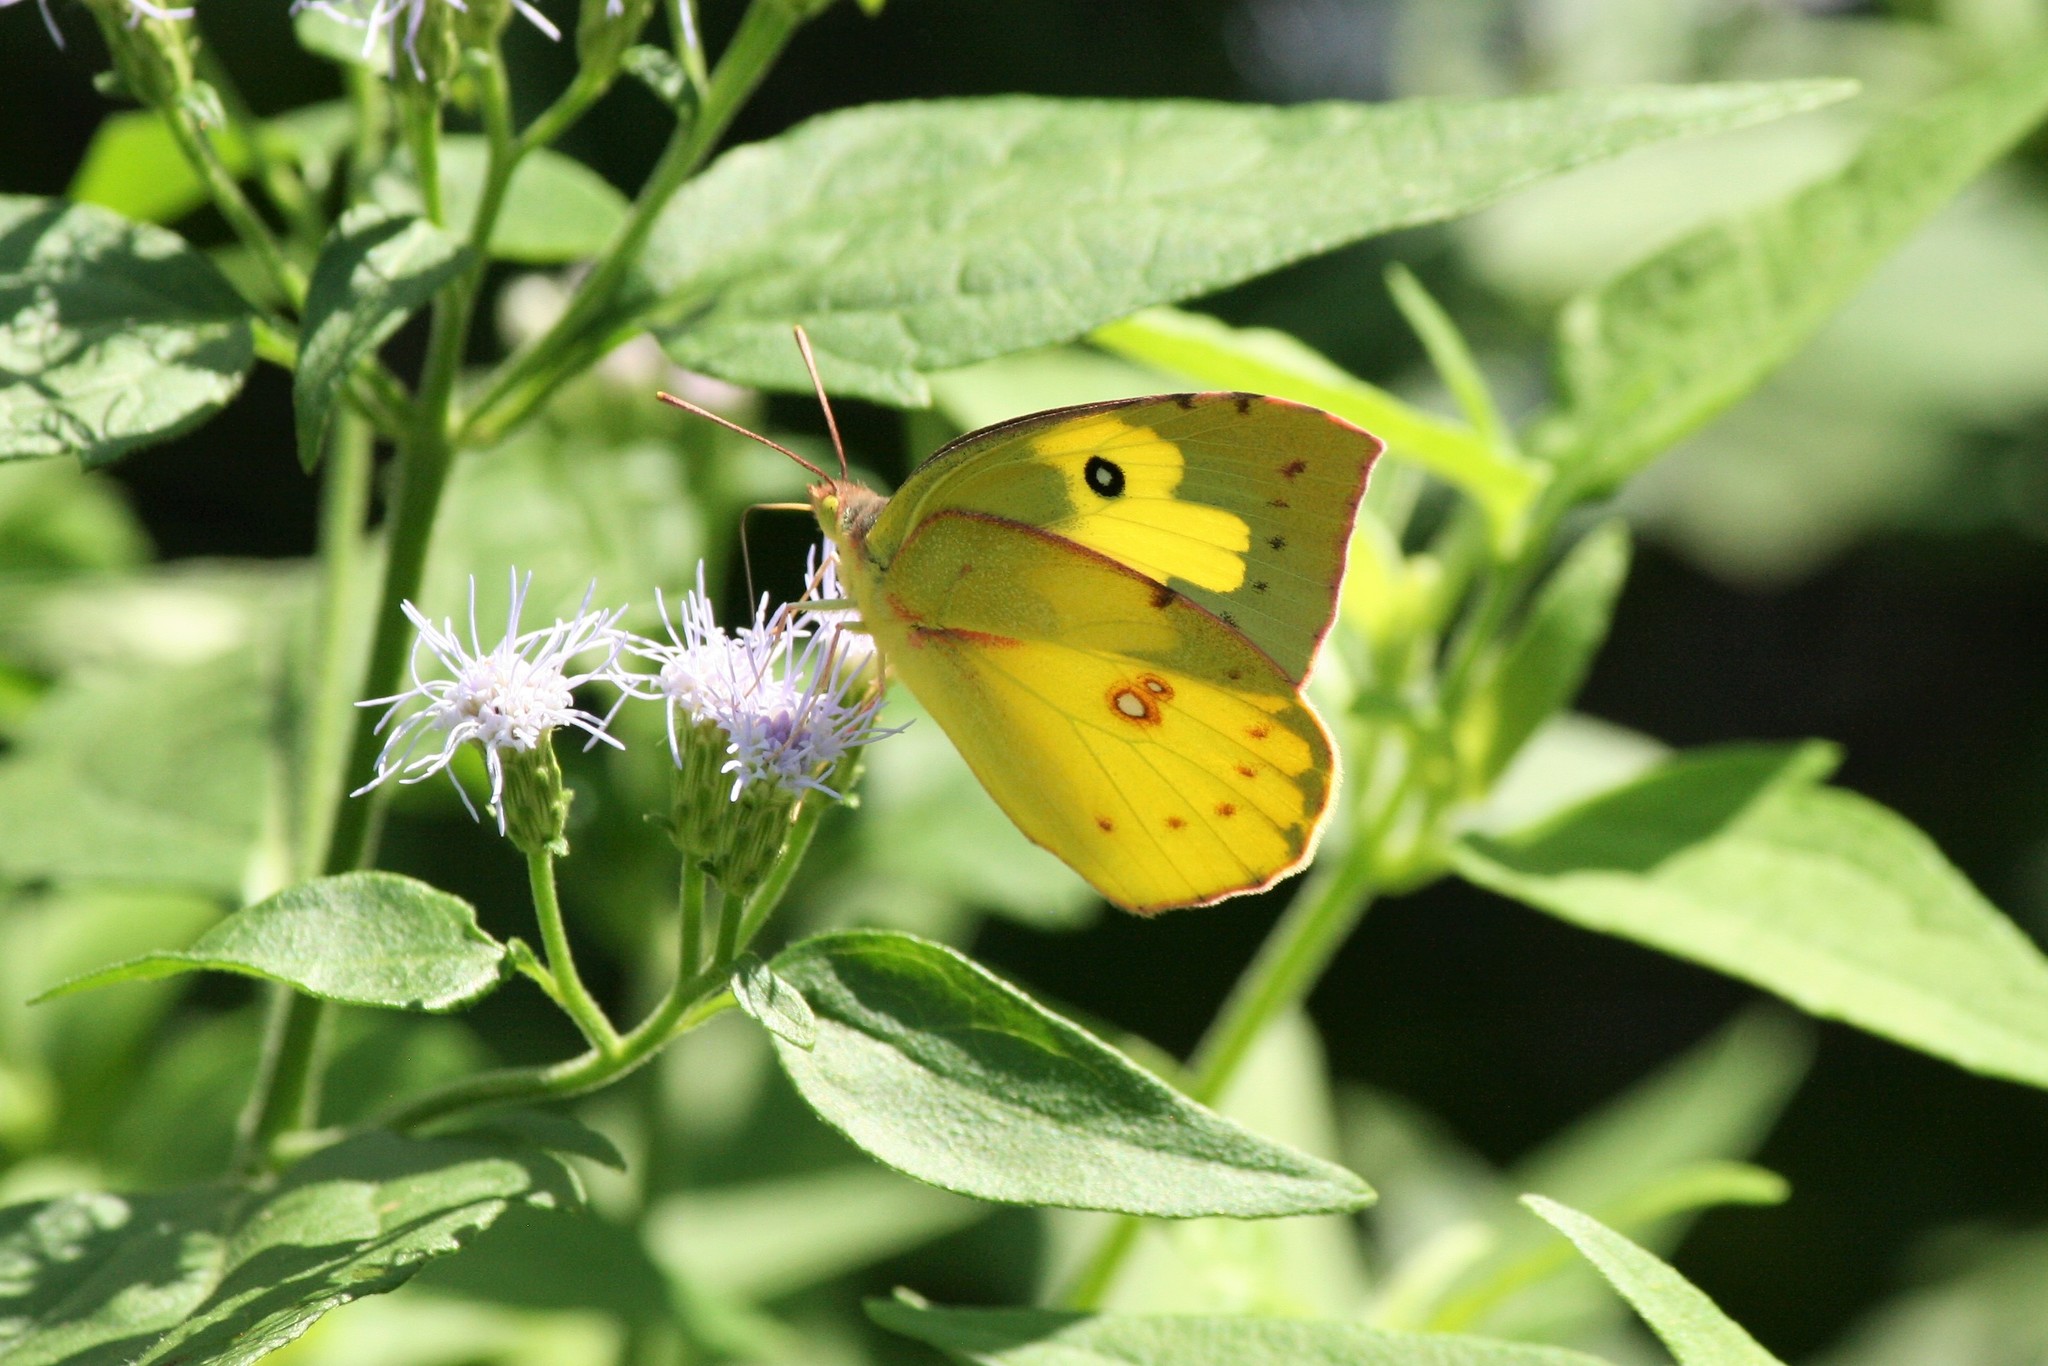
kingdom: Animalia
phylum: Arthropoda
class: Insecta
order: Lepidoptera
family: Pieridae
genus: Zerene
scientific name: Zerene cesonia
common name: Southern dogface
